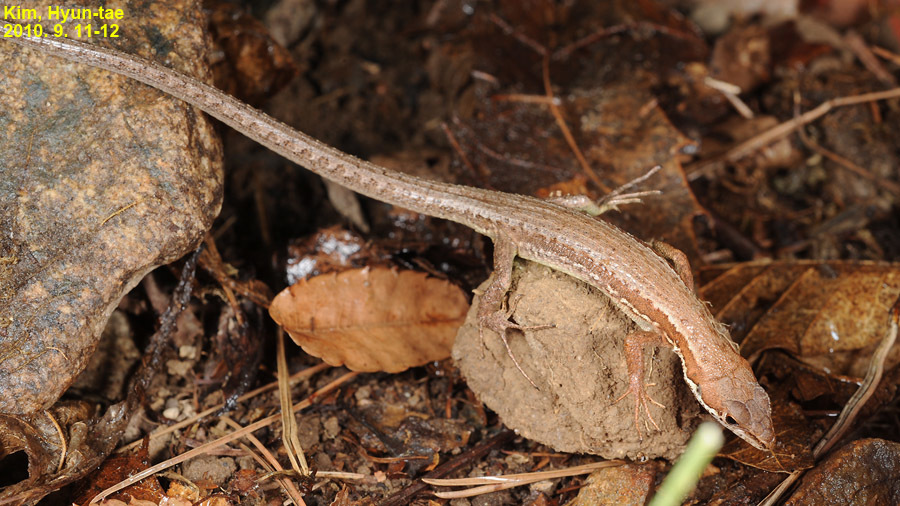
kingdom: Animalia
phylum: Chordata
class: Squamata
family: Lacertidae
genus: Takydromus
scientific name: Takydromus amurensis
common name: Amur grass lizard
